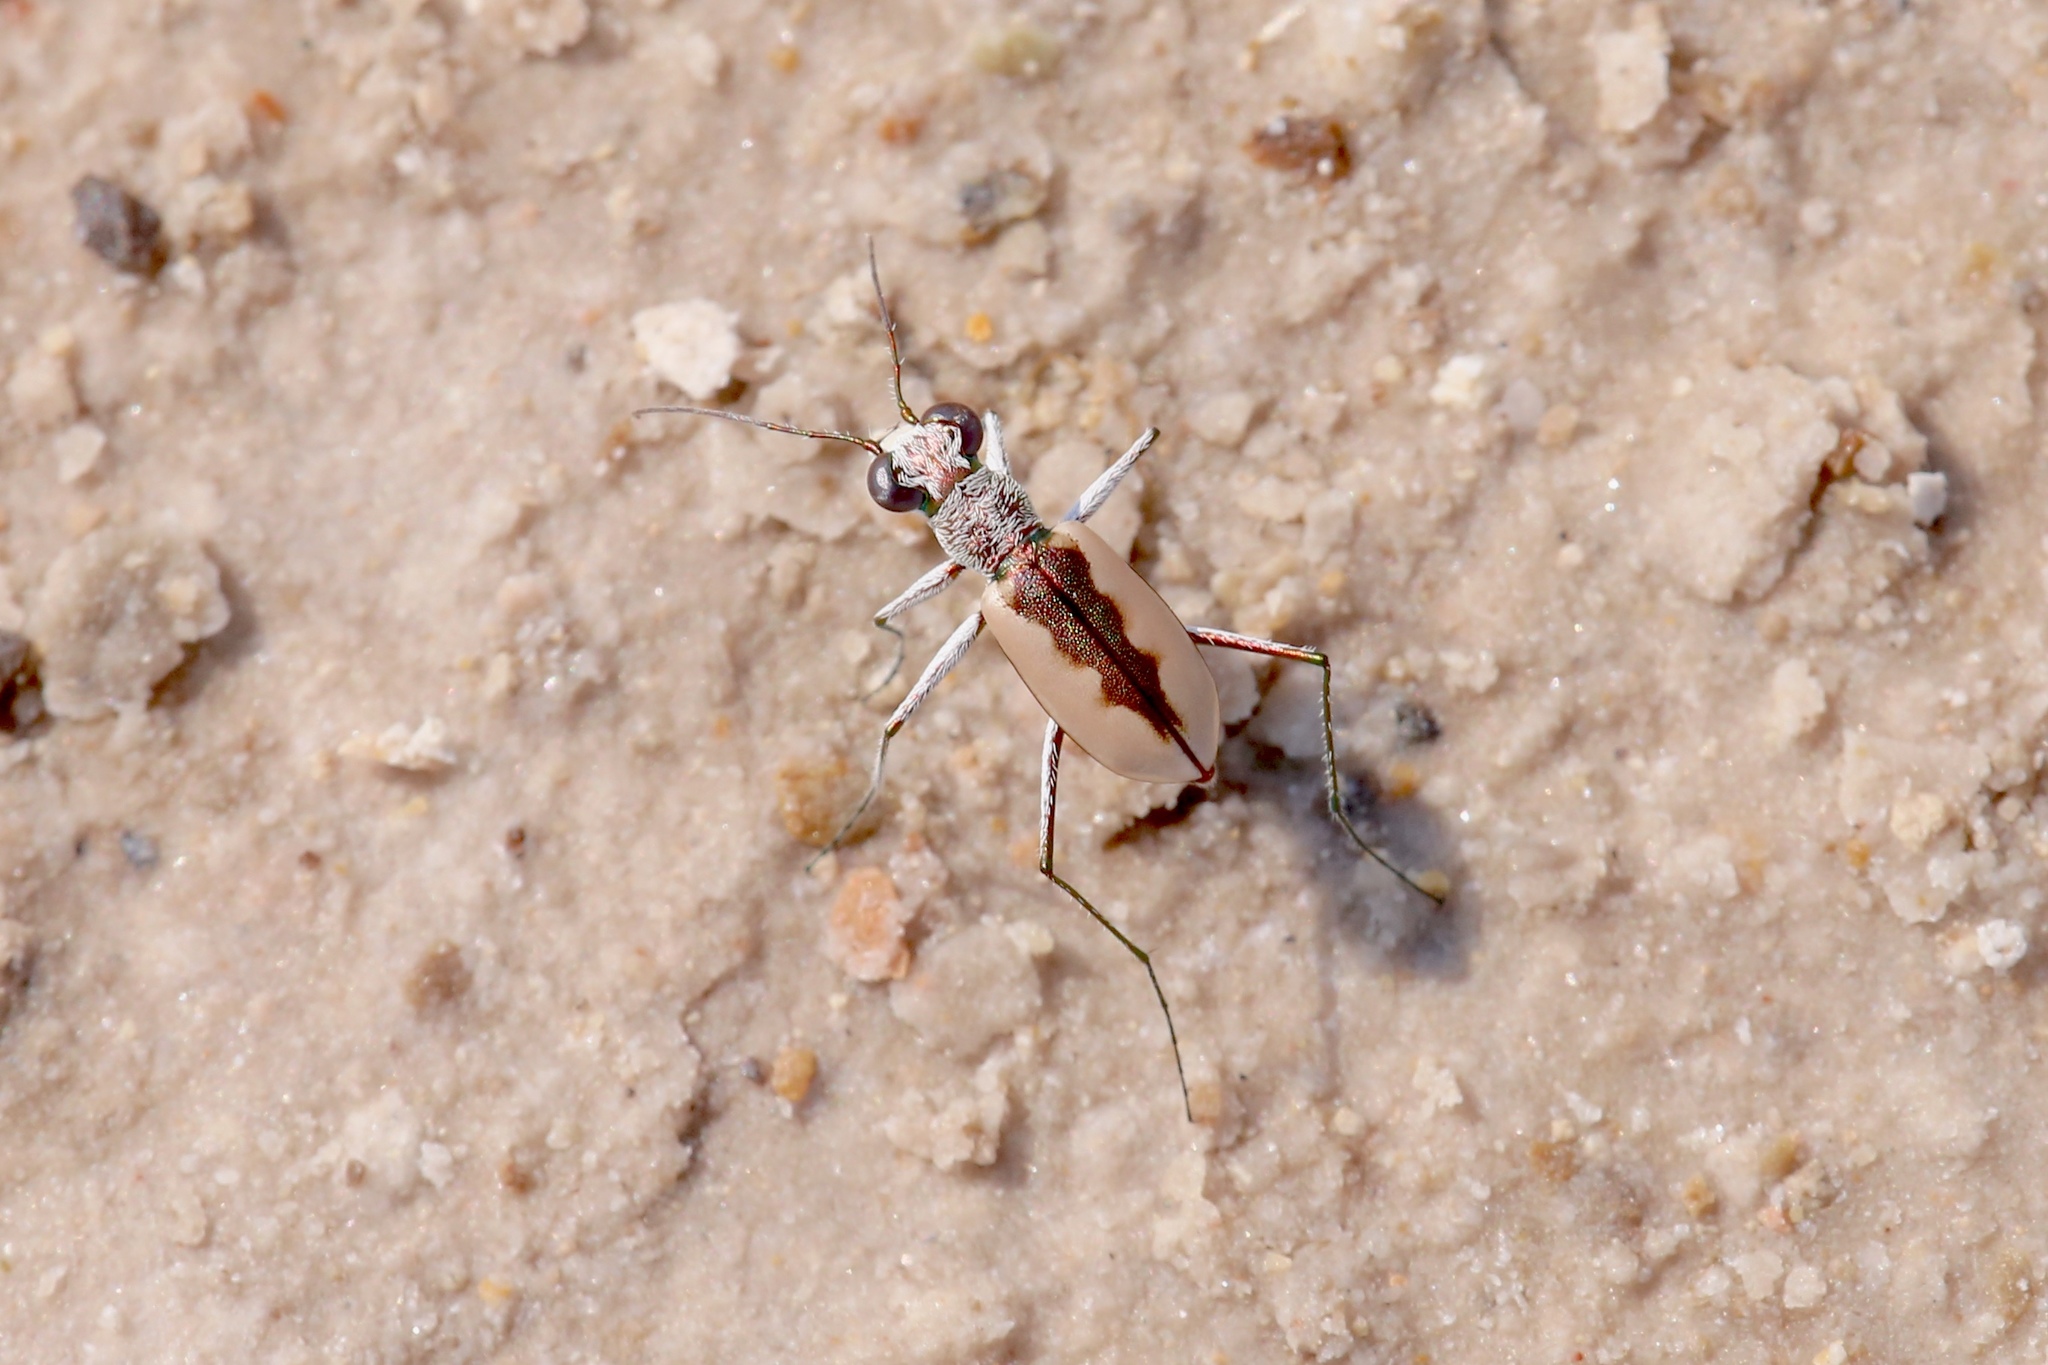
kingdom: Animalia
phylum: Arthropoda
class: Insecta
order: Coleoptera
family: Carabidae
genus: Eunota
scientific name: Eunota togata
